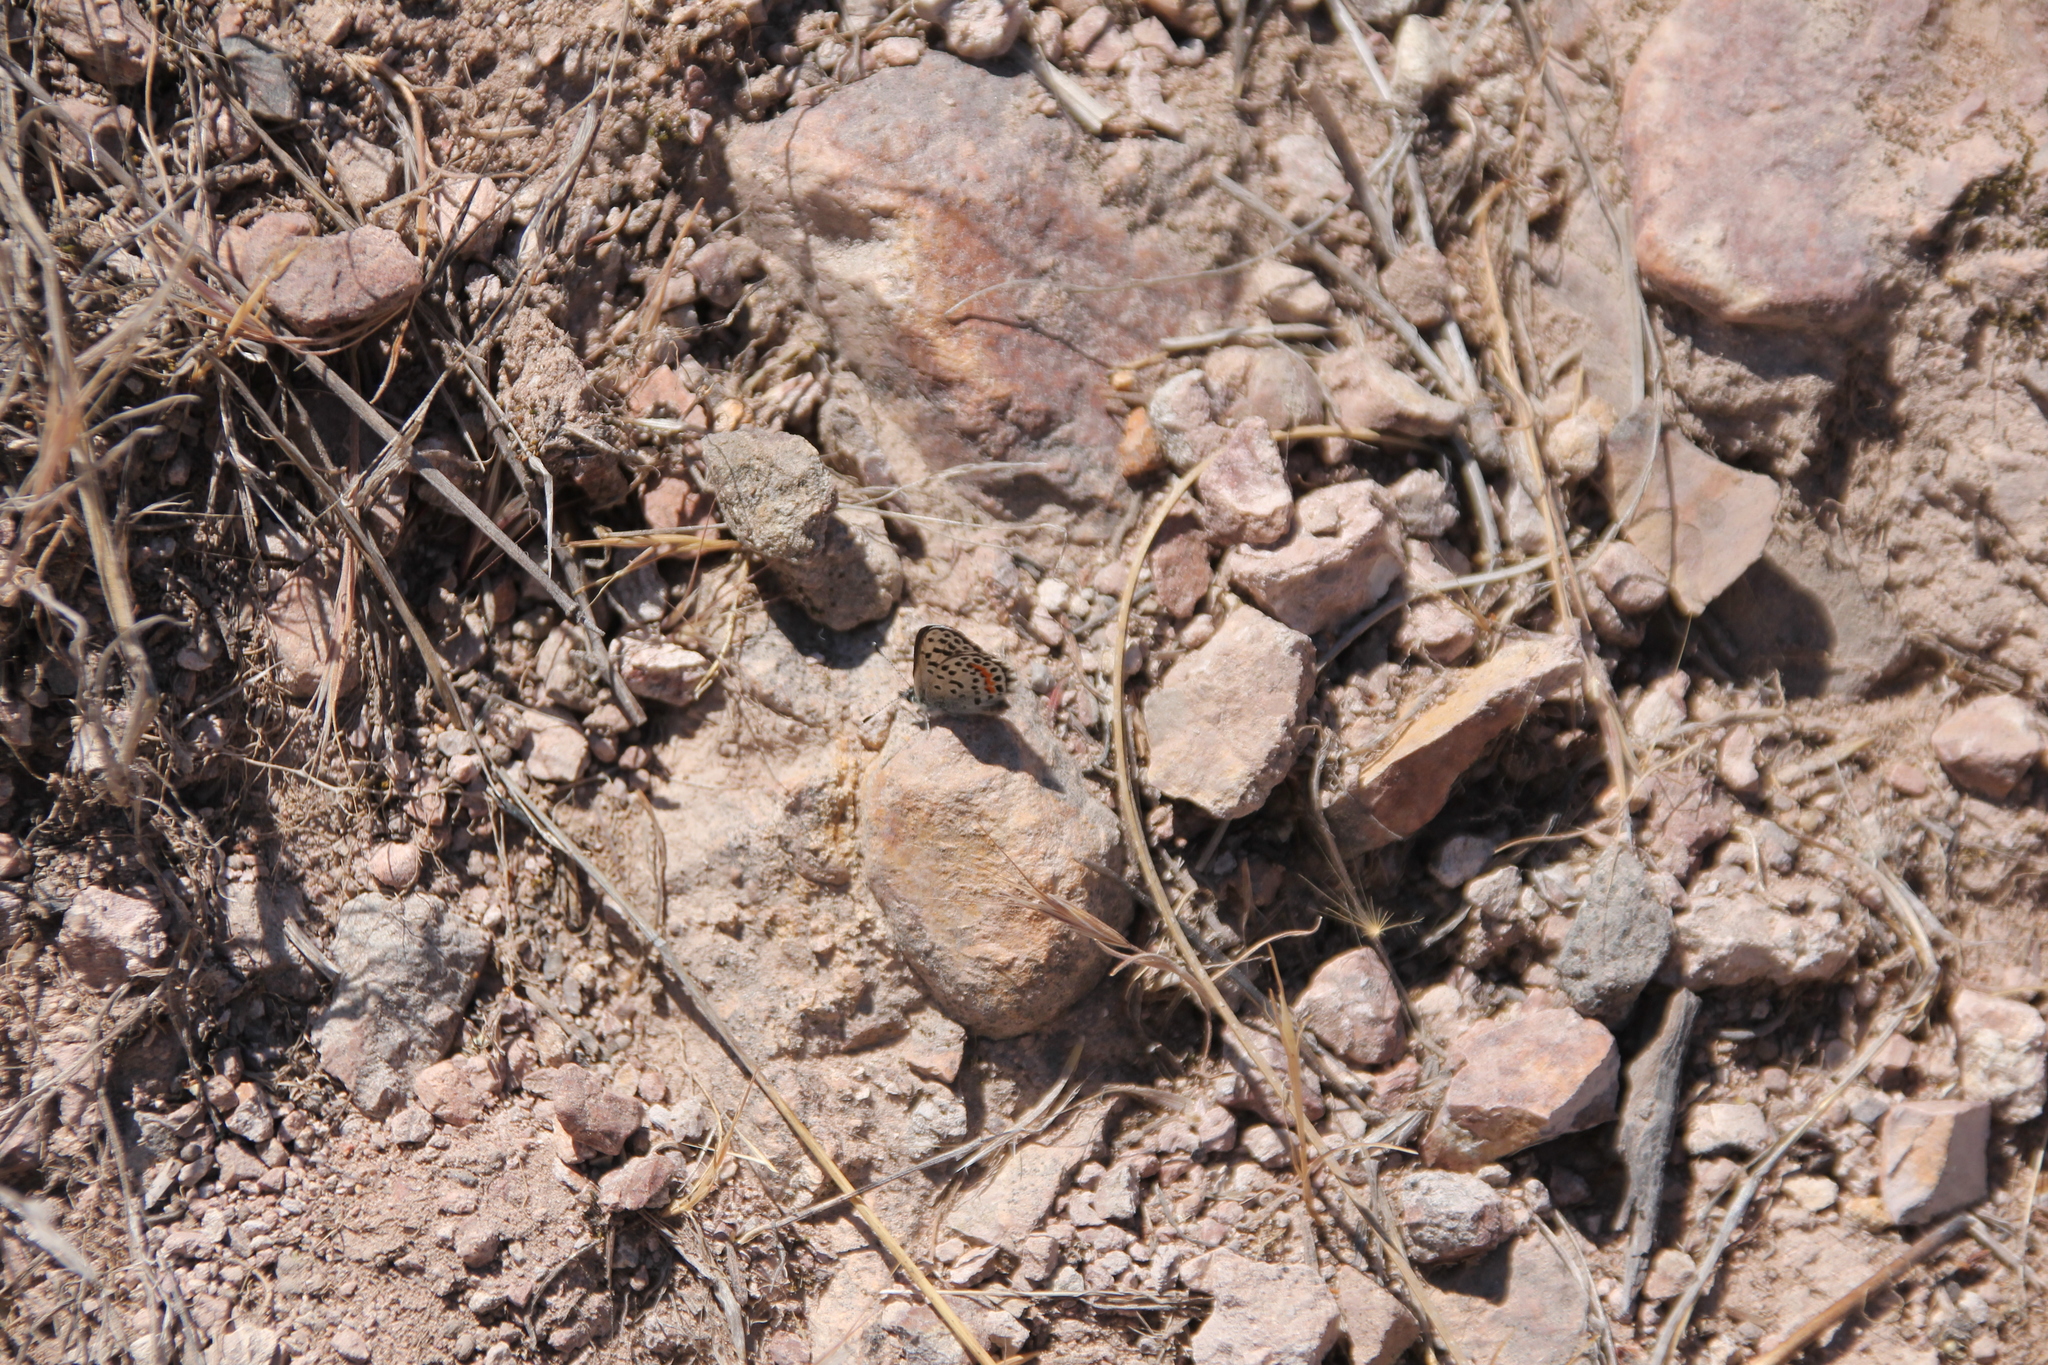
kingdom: Animalia
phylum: Arthropoda
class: Insecta
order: Lepidoptera
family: Lycaenidae
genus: Philotes
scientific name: Philotes bernardino
